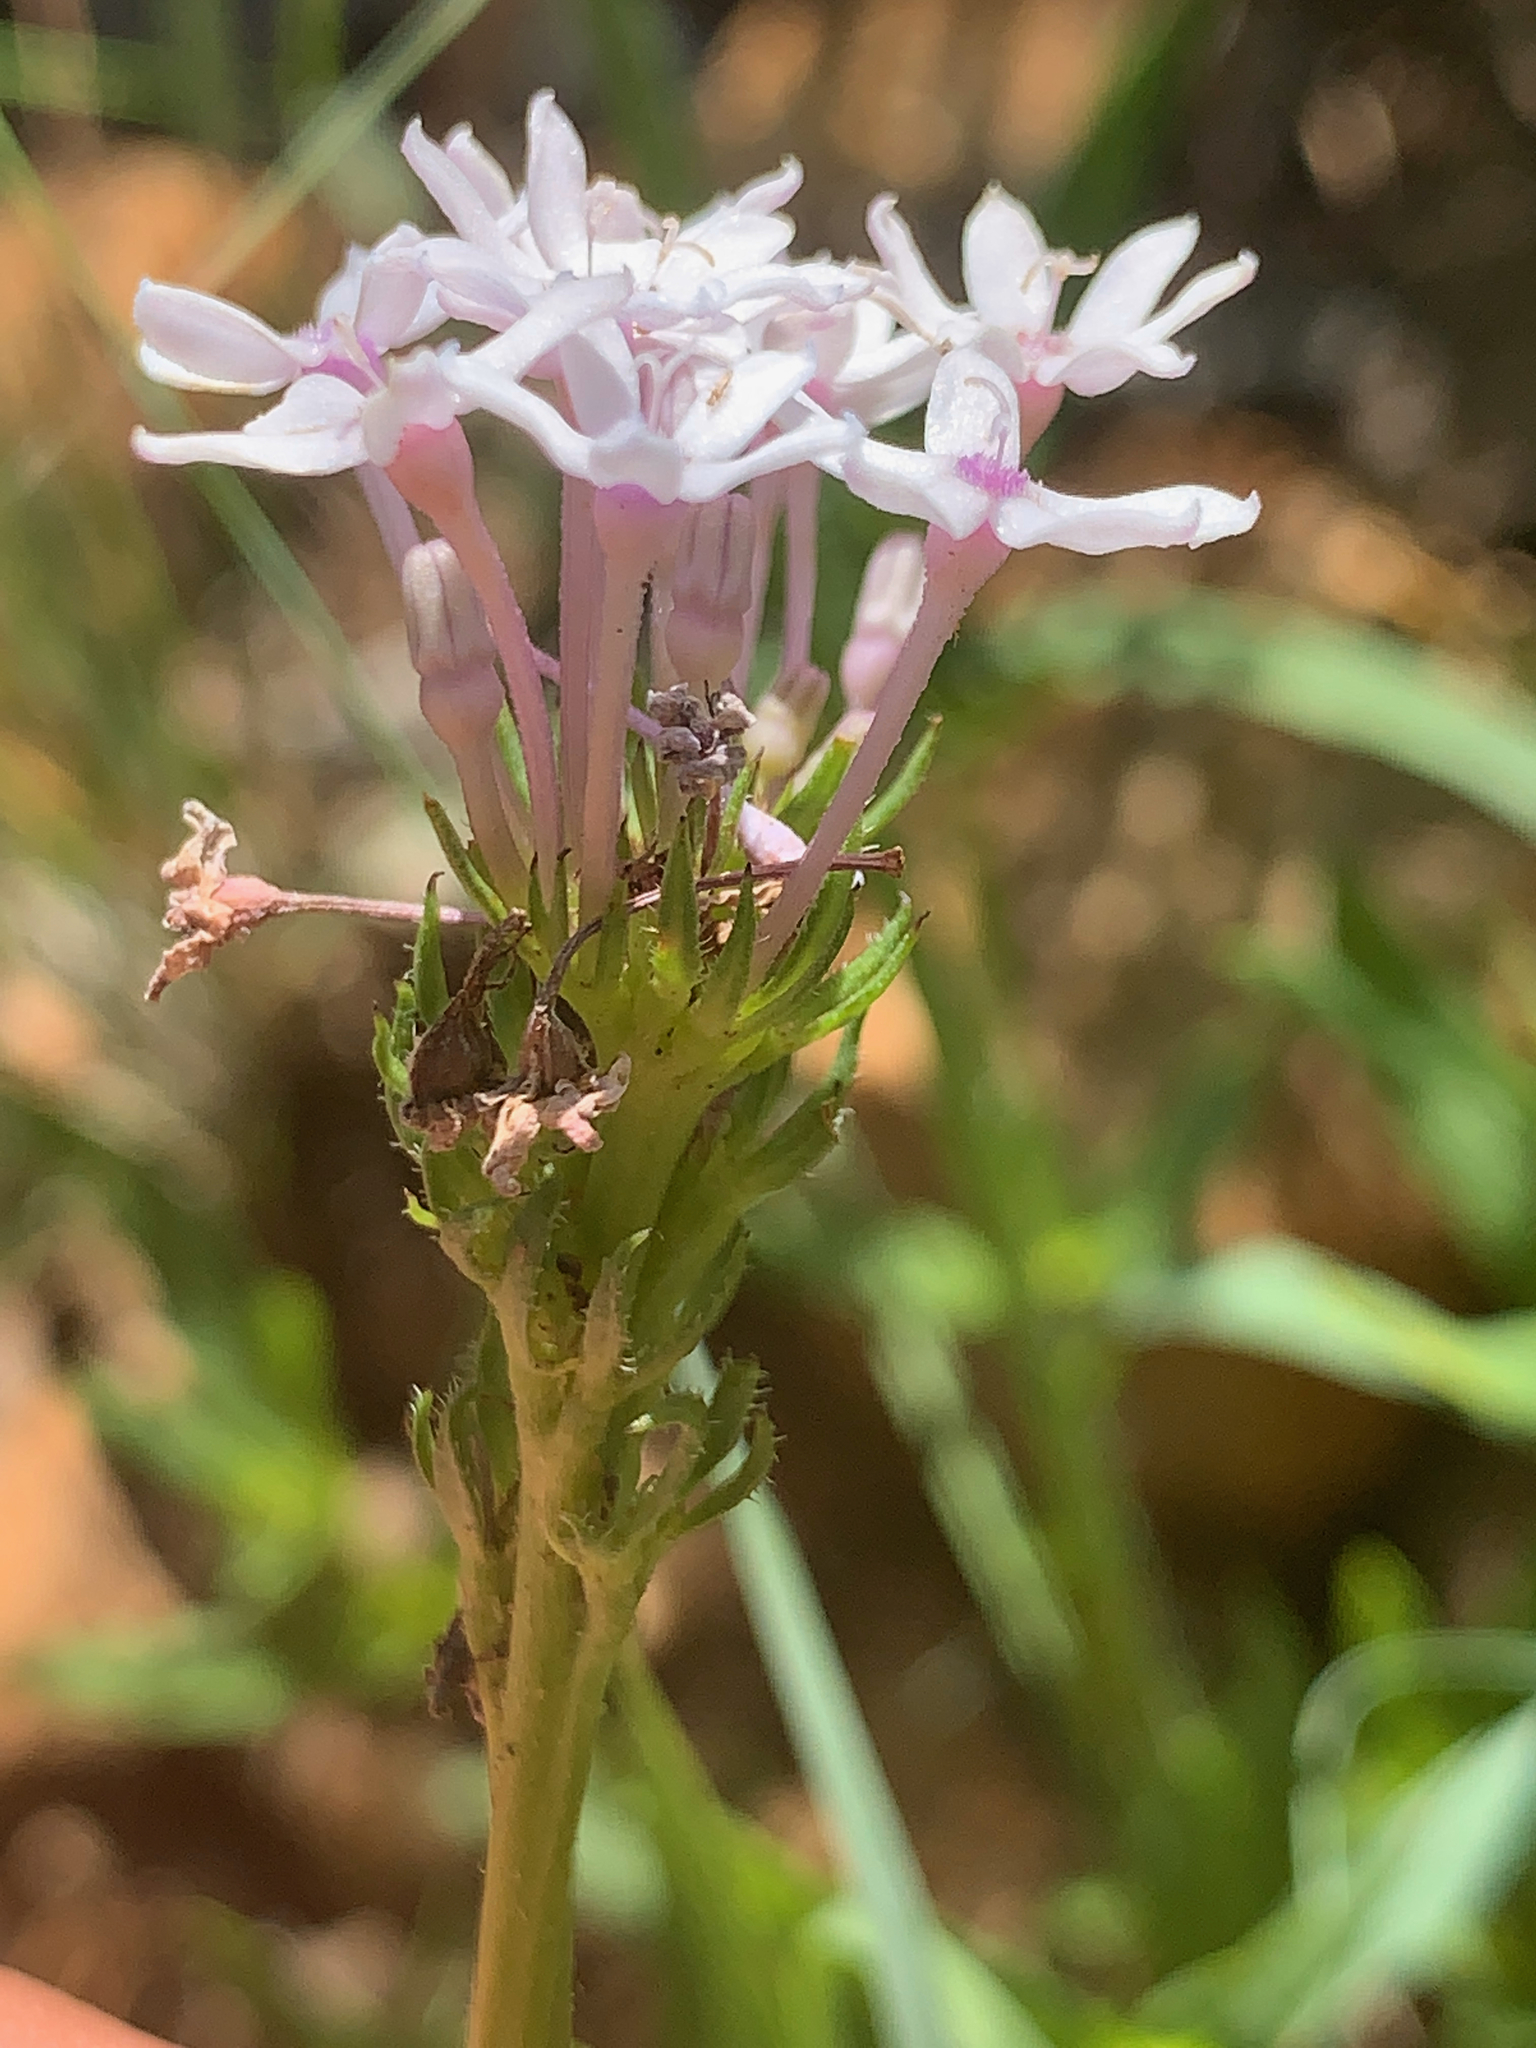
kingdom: Plantae
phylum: Tracheophyta
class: Magnoliopsida
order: Gentianales
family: Rubiaceae
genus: Pentanisia
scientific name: Pentanisia prunelloides
